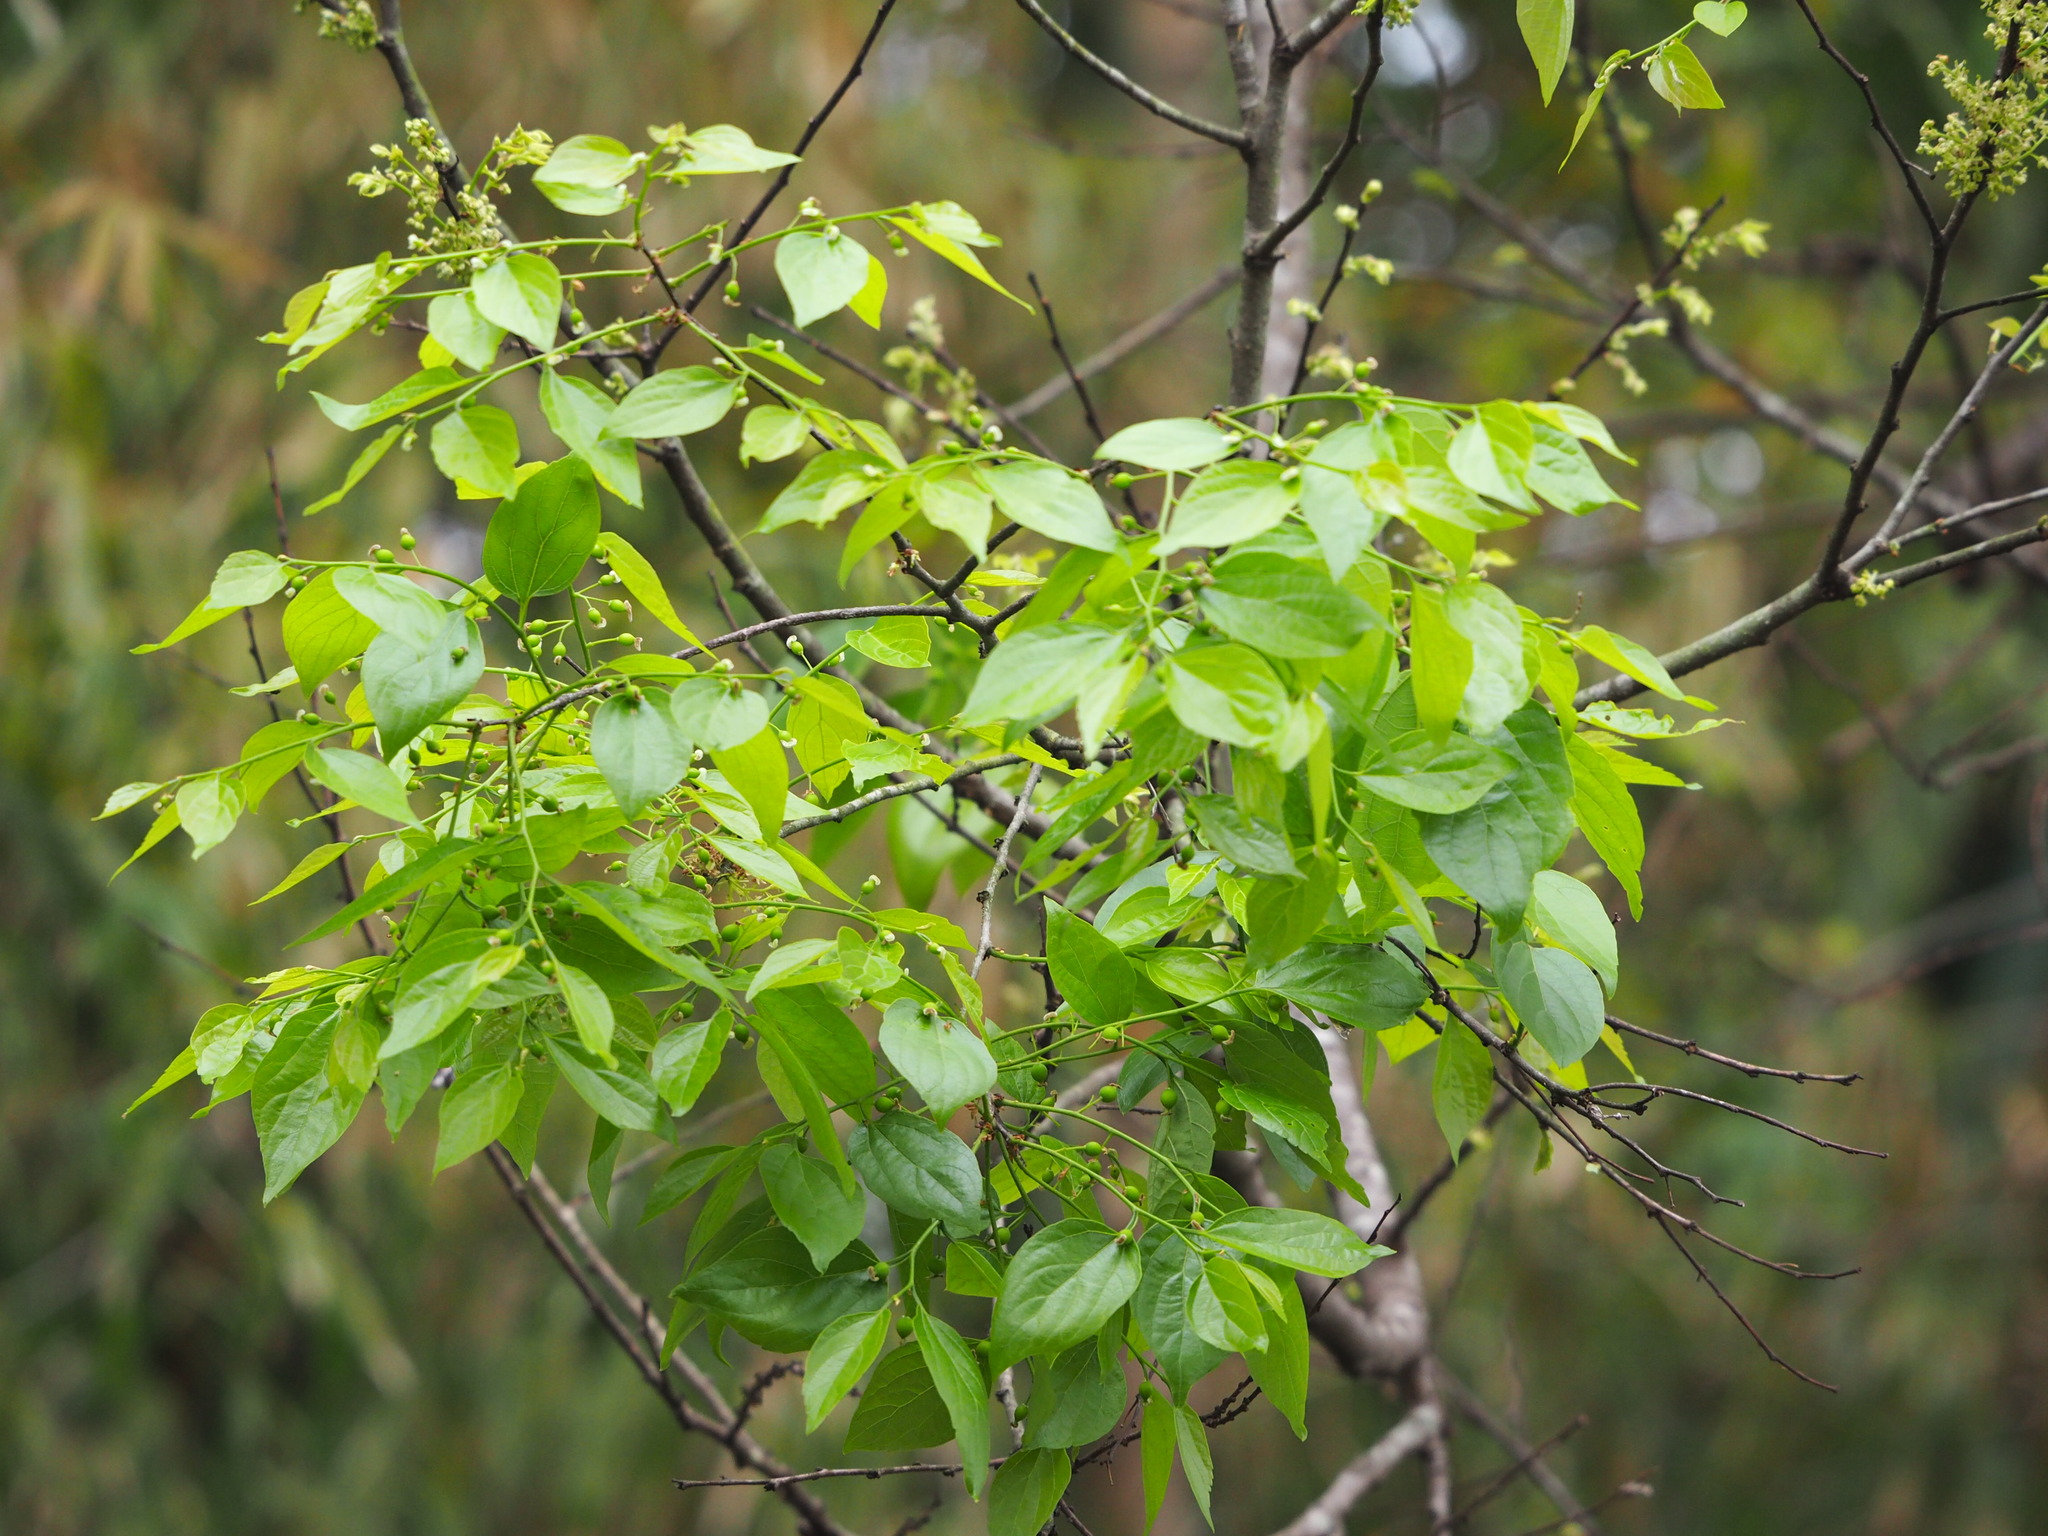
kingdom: Plantae
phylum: Tracheophyta
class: Magnoliopsida
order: Rosales
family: Cannabaceae
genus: Celtis
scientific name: Celtis sinensis
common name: Chinese hackberry
